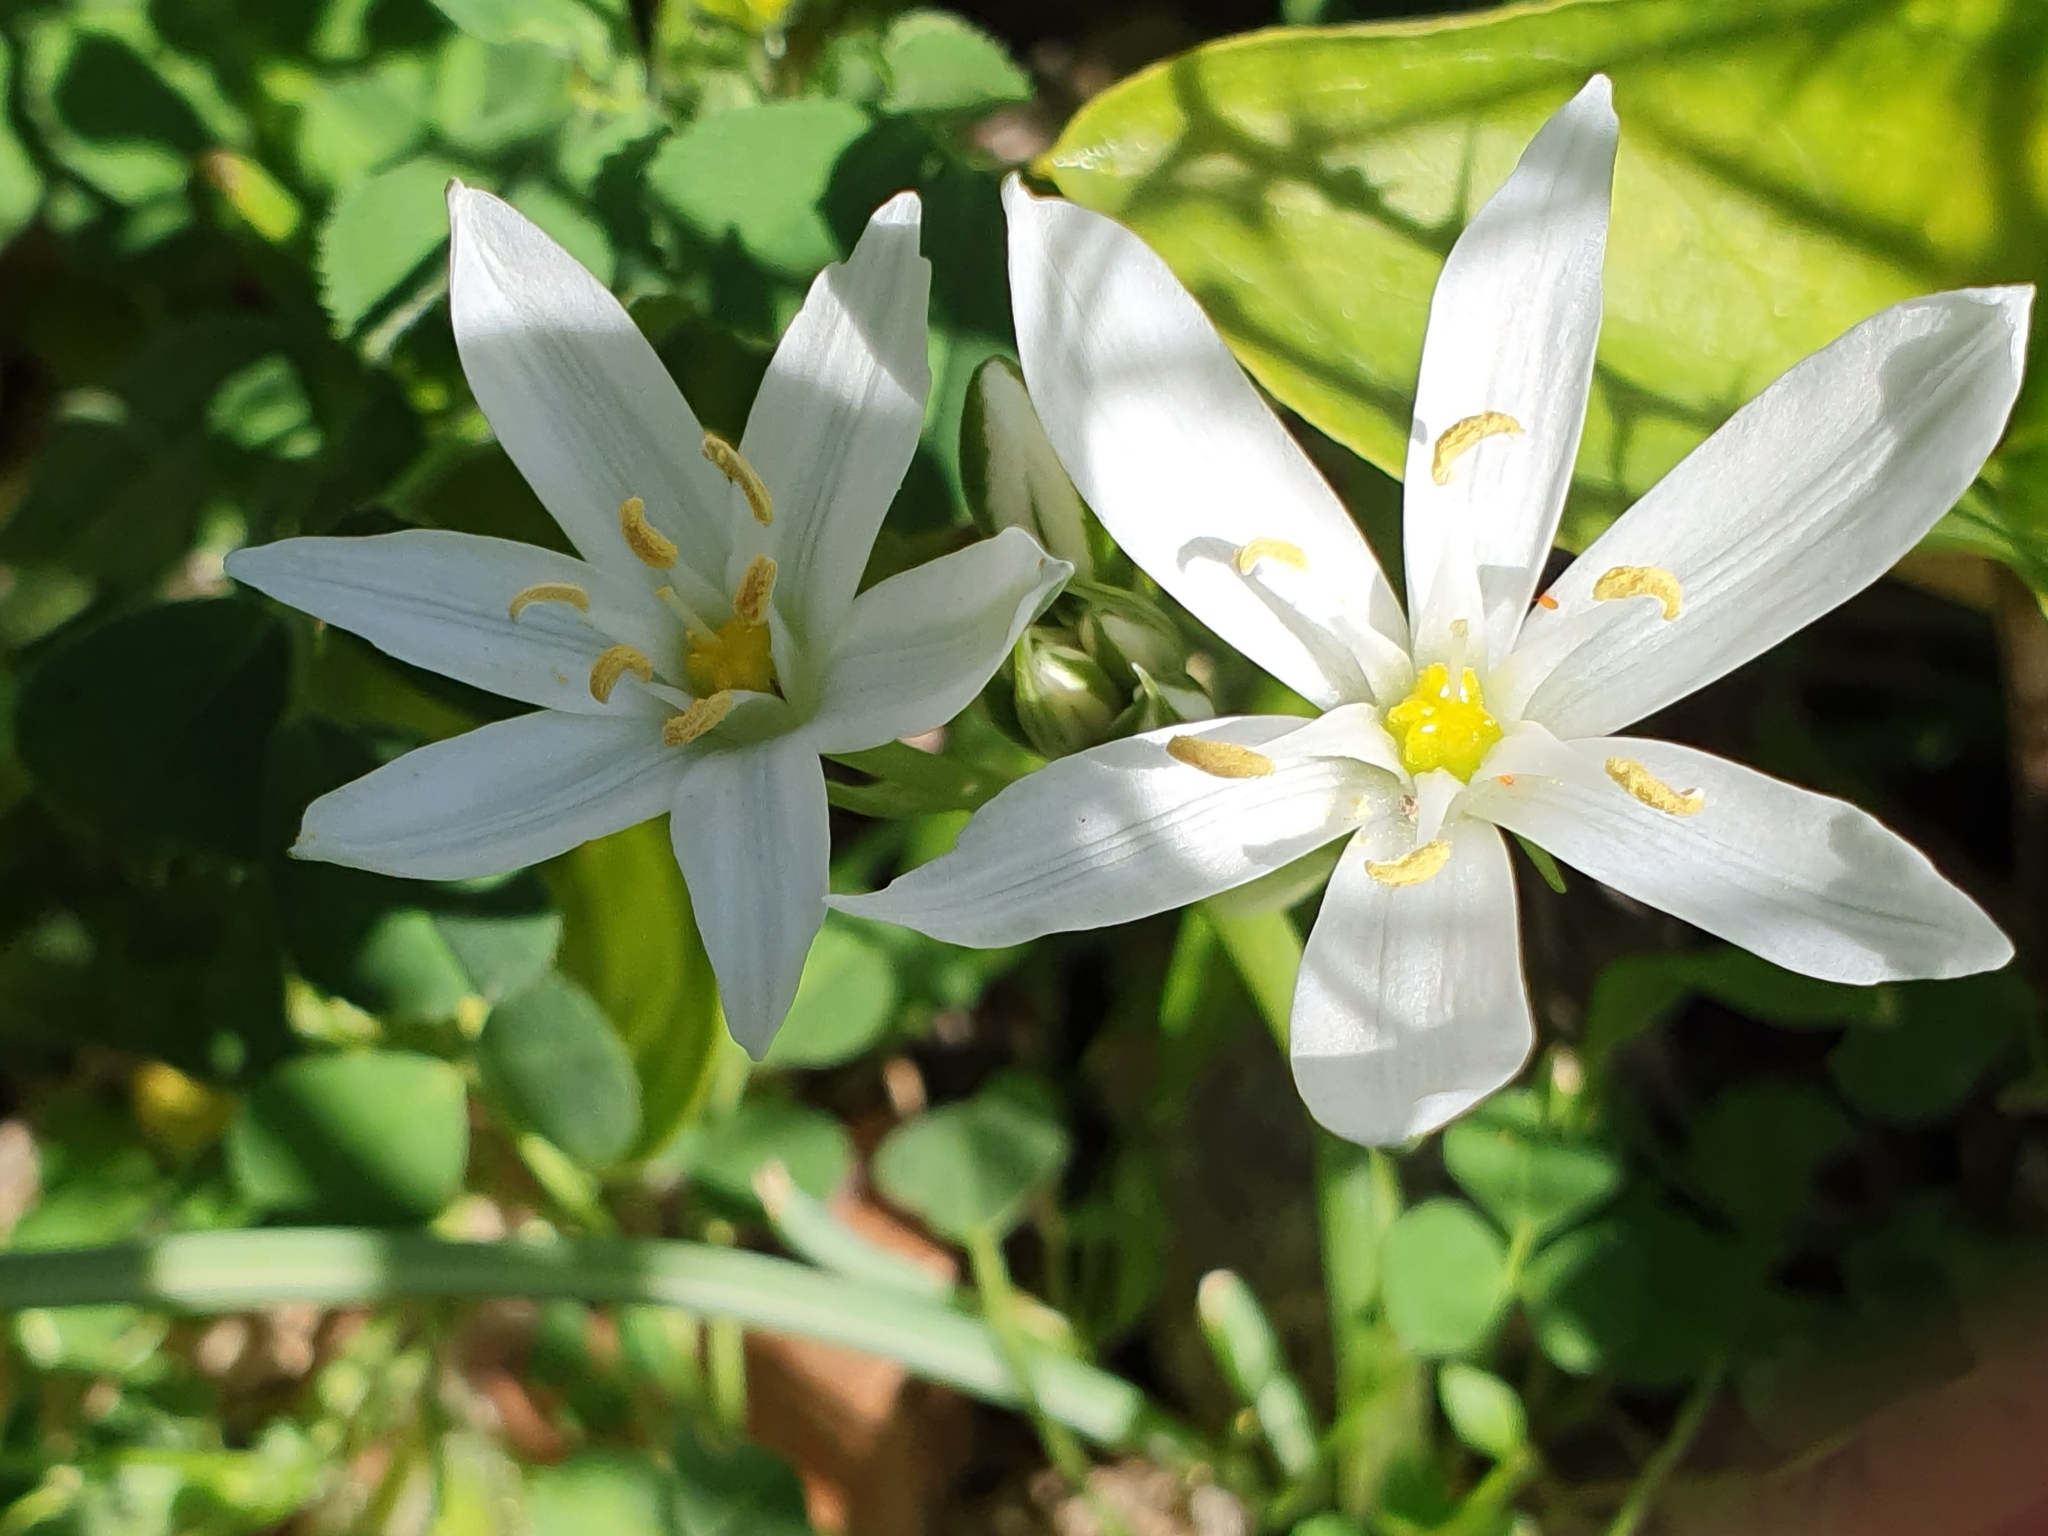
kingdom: Plantae
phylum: Tracheophyta
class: Liliopsida
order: Asparagales
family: Asparagaceae
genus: Ornithogalum
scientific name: Ornithogalum baeticum
